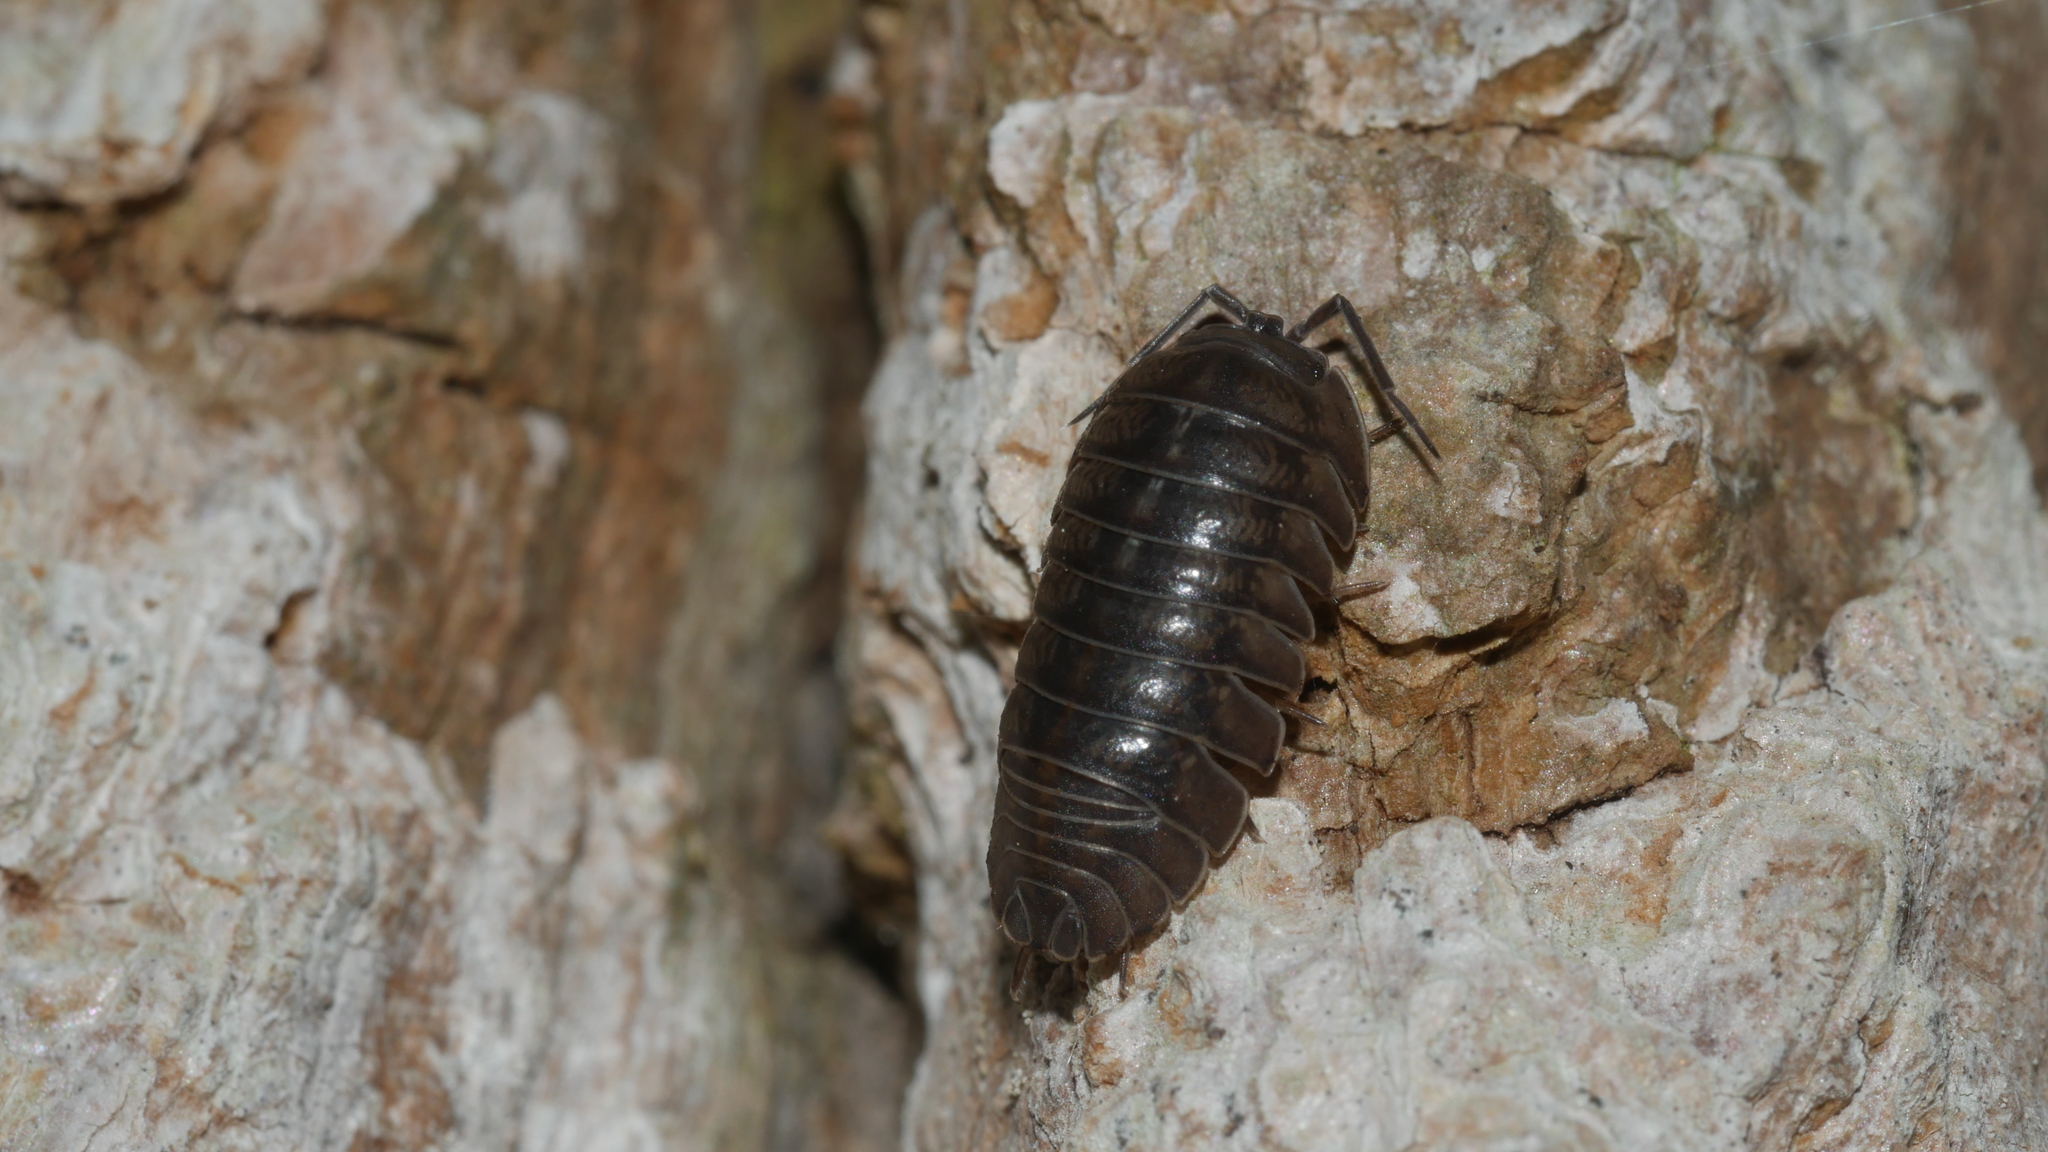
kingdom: Animalia
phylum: Arthropoda
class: Malacostraca
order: Isopoda
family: Armadillidiidae
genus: Armadillidium
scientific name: Armadillidium nasatum
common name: Isopod
